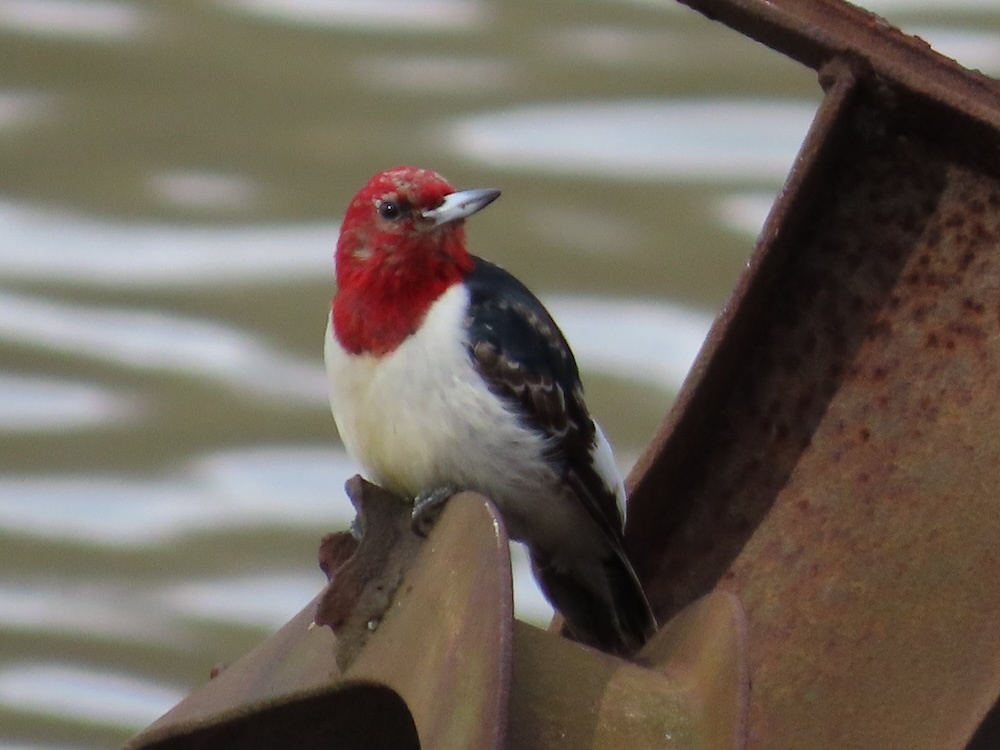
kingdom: Animalia
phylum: Chordata
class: Aves
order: Piciformes
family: Picidae
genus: Melanerpes
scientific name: Melanerpes erythrocephalus
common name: Red-headed woodpecker
